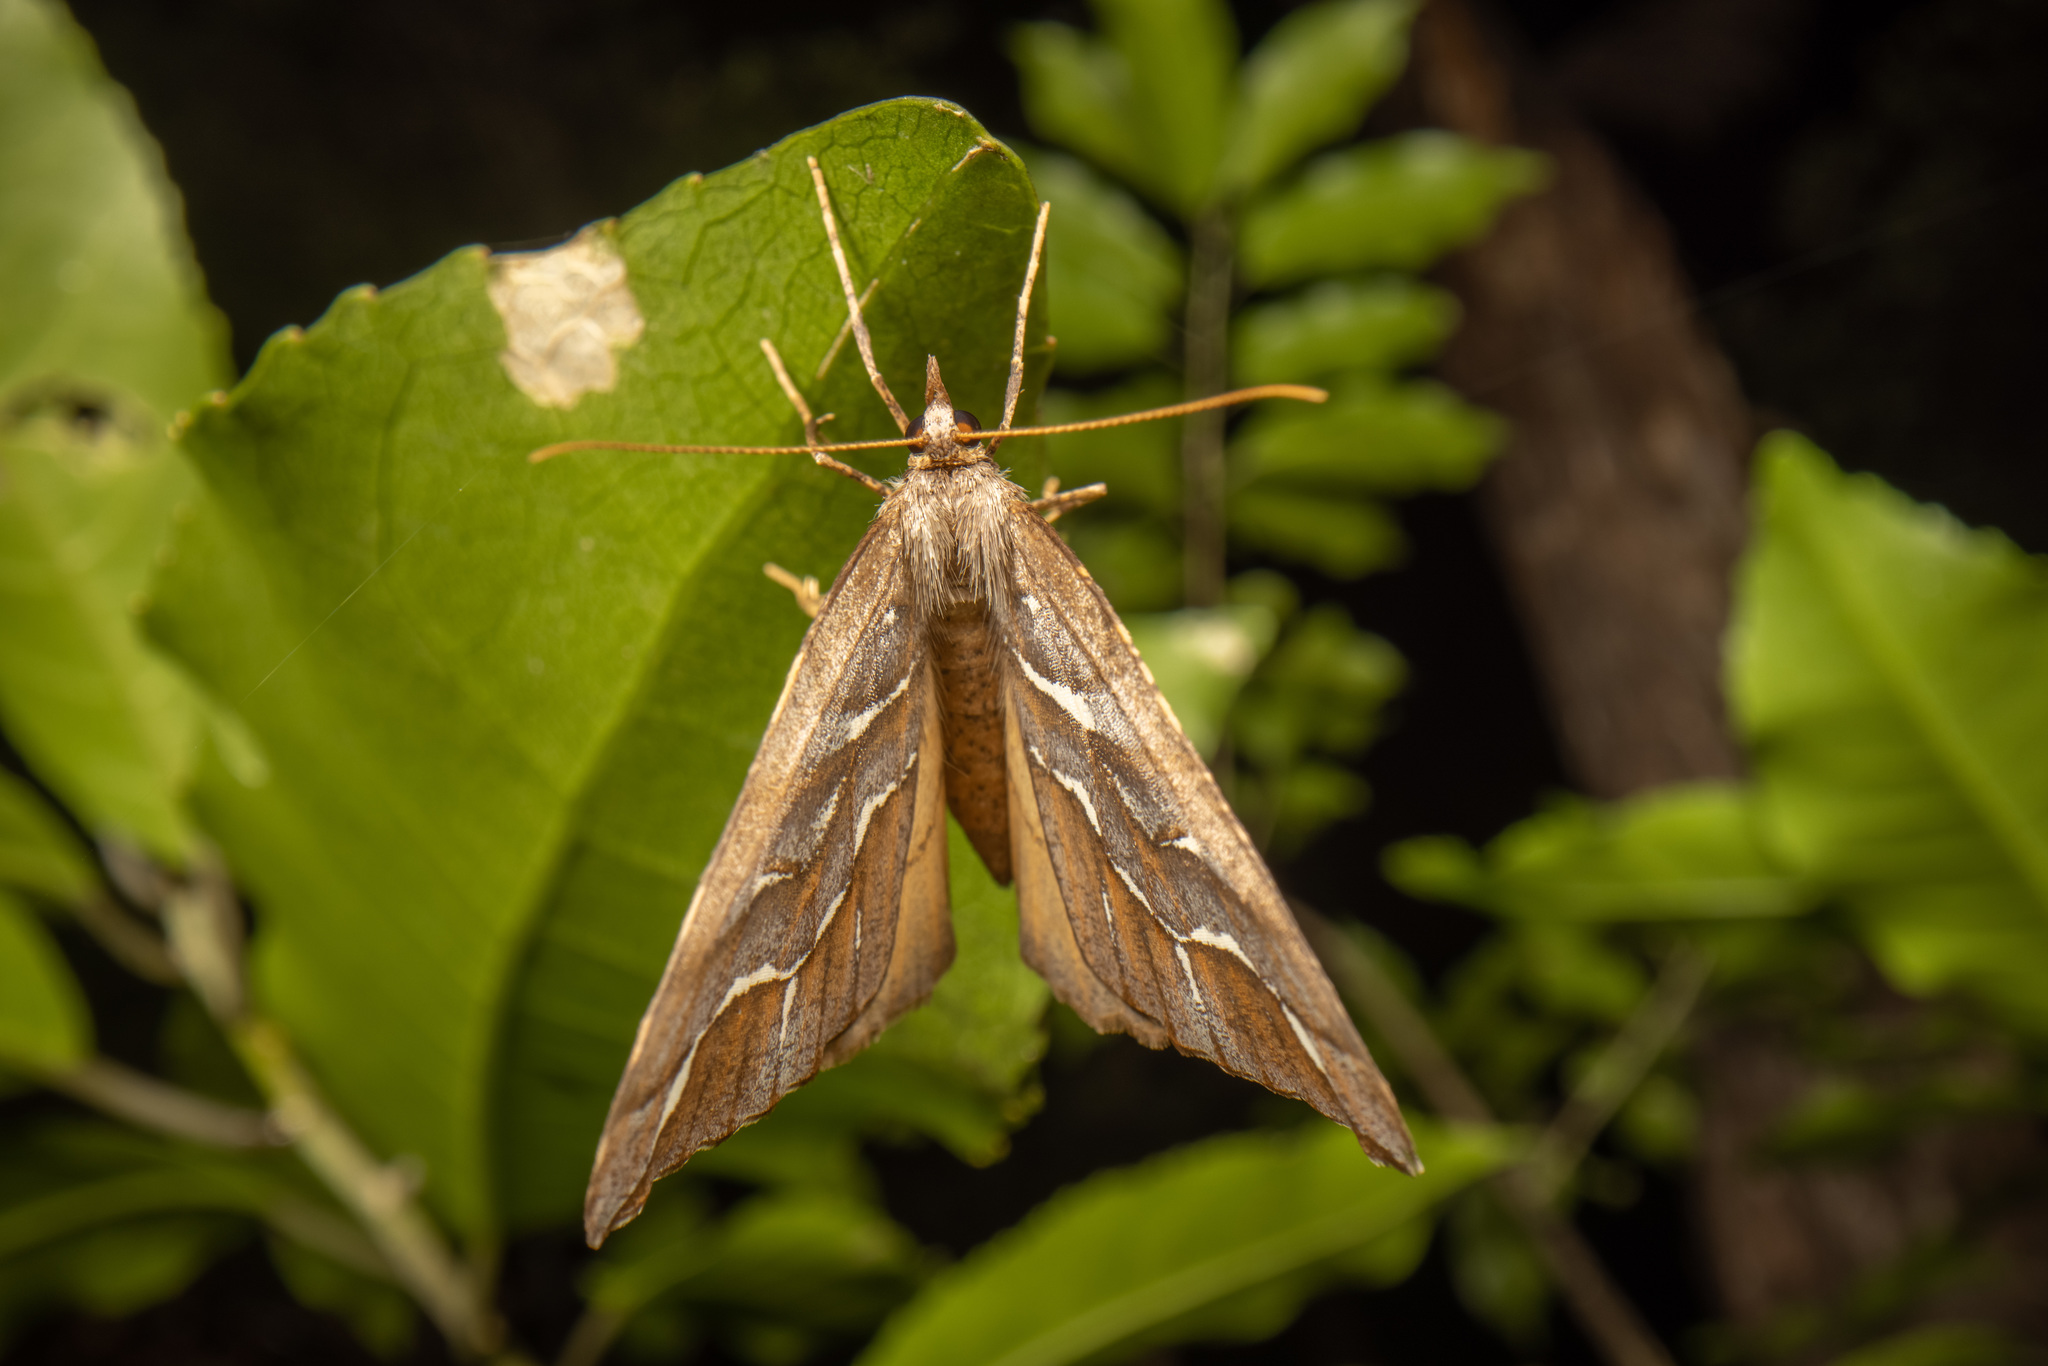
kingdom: Animalia
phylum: Arthropoda
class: Insecta
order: Lepidoptera
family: Geometridae
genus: Chalastra
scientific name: Chalastra aristarcha
